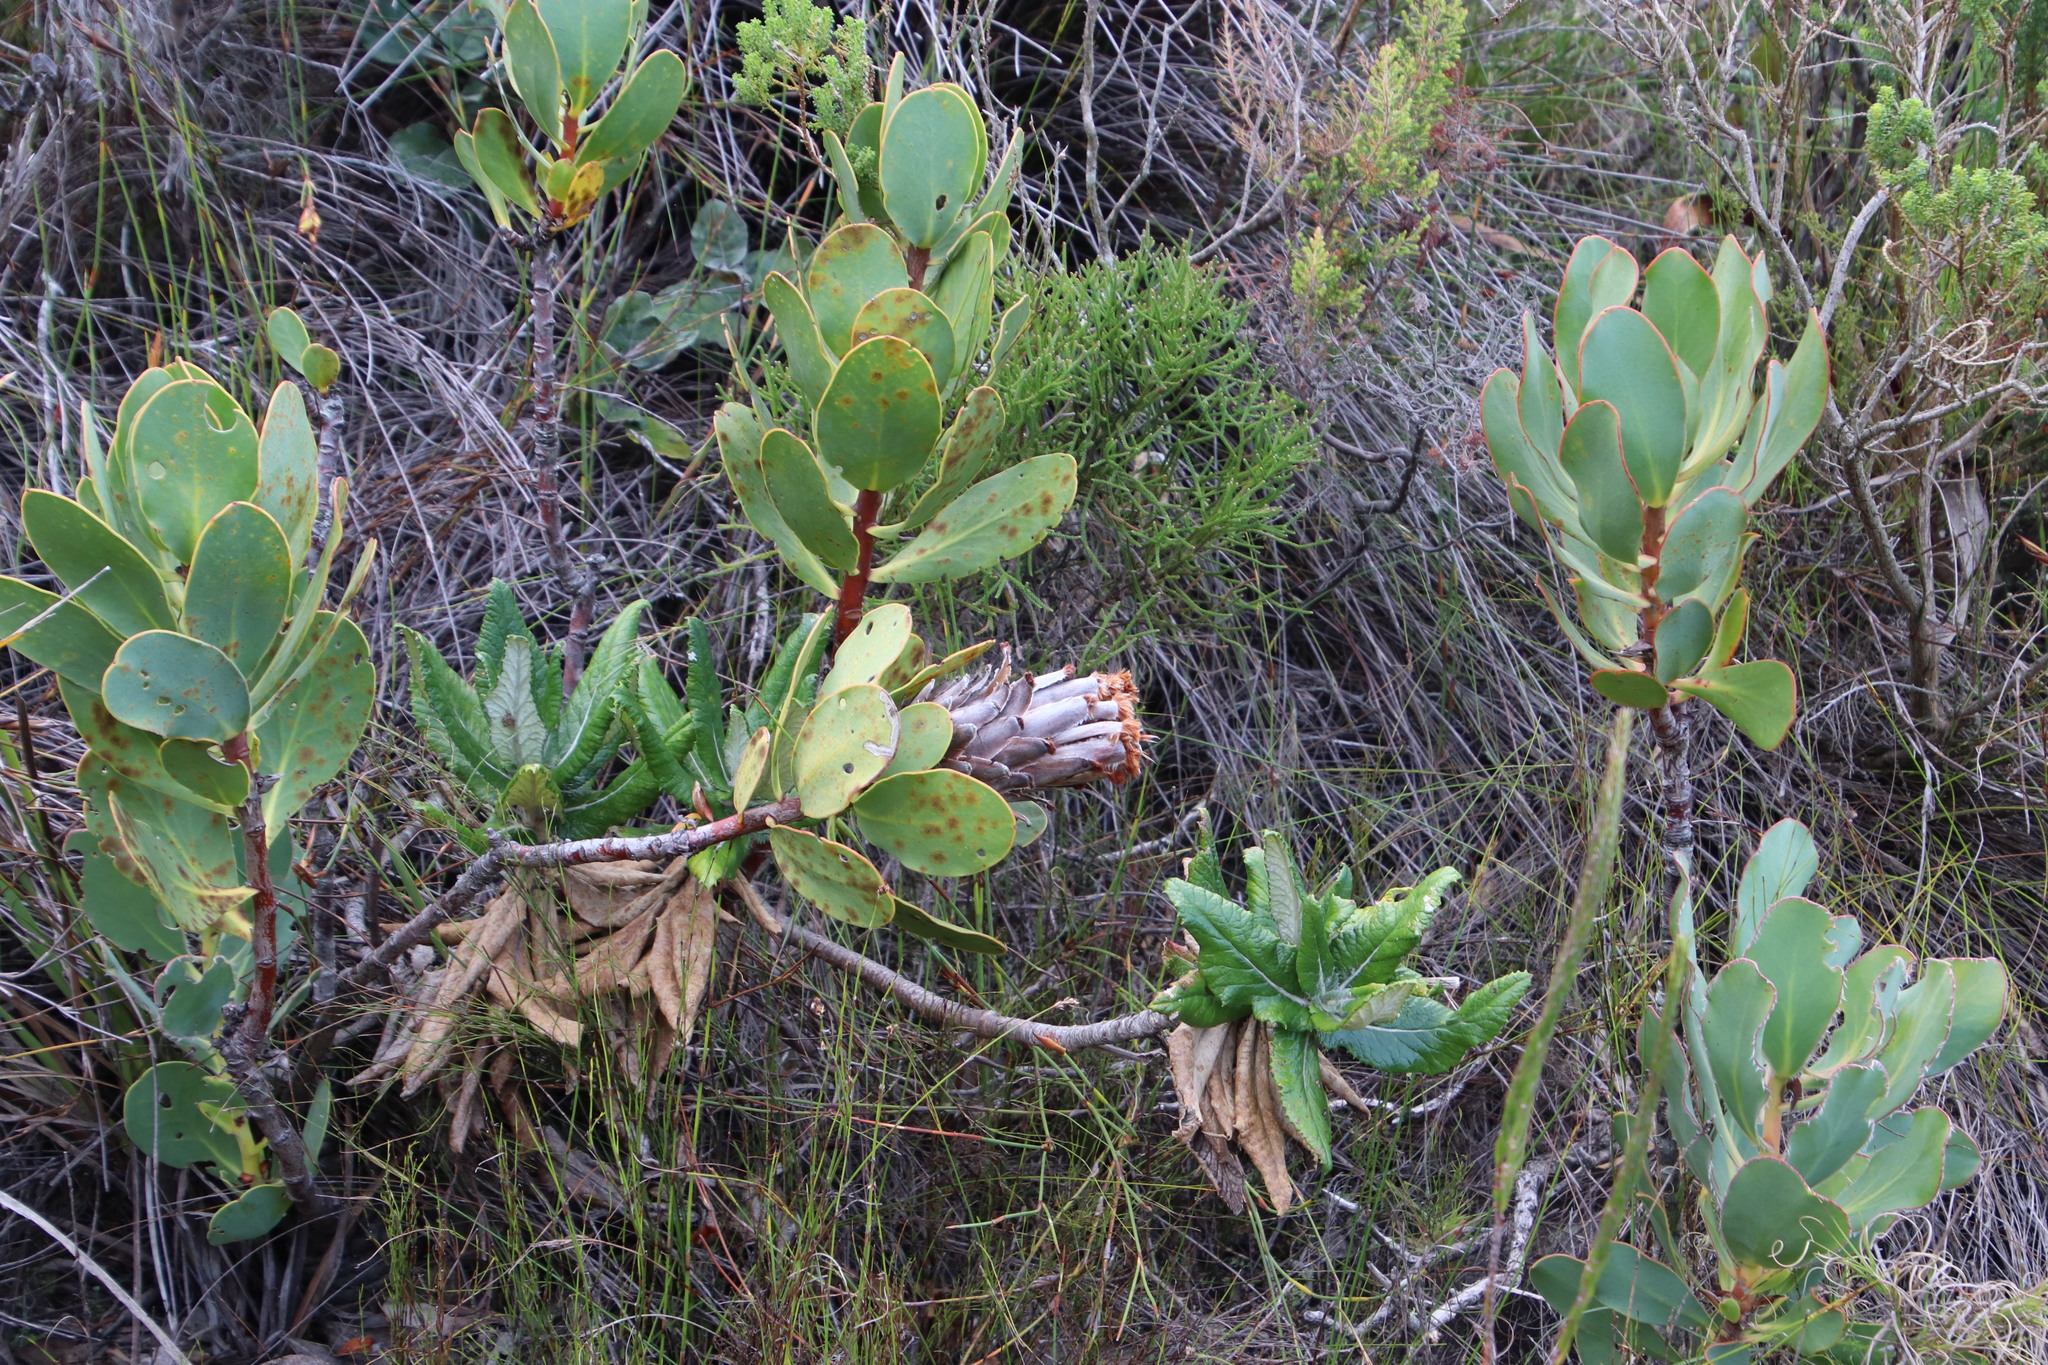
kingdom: Plantae
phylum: Tracheophyta
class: Magnoliopsida
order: Proteales
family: Proteaceae
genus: Protea
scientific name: Protea speciosa
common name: Brown-beard sugarbush
